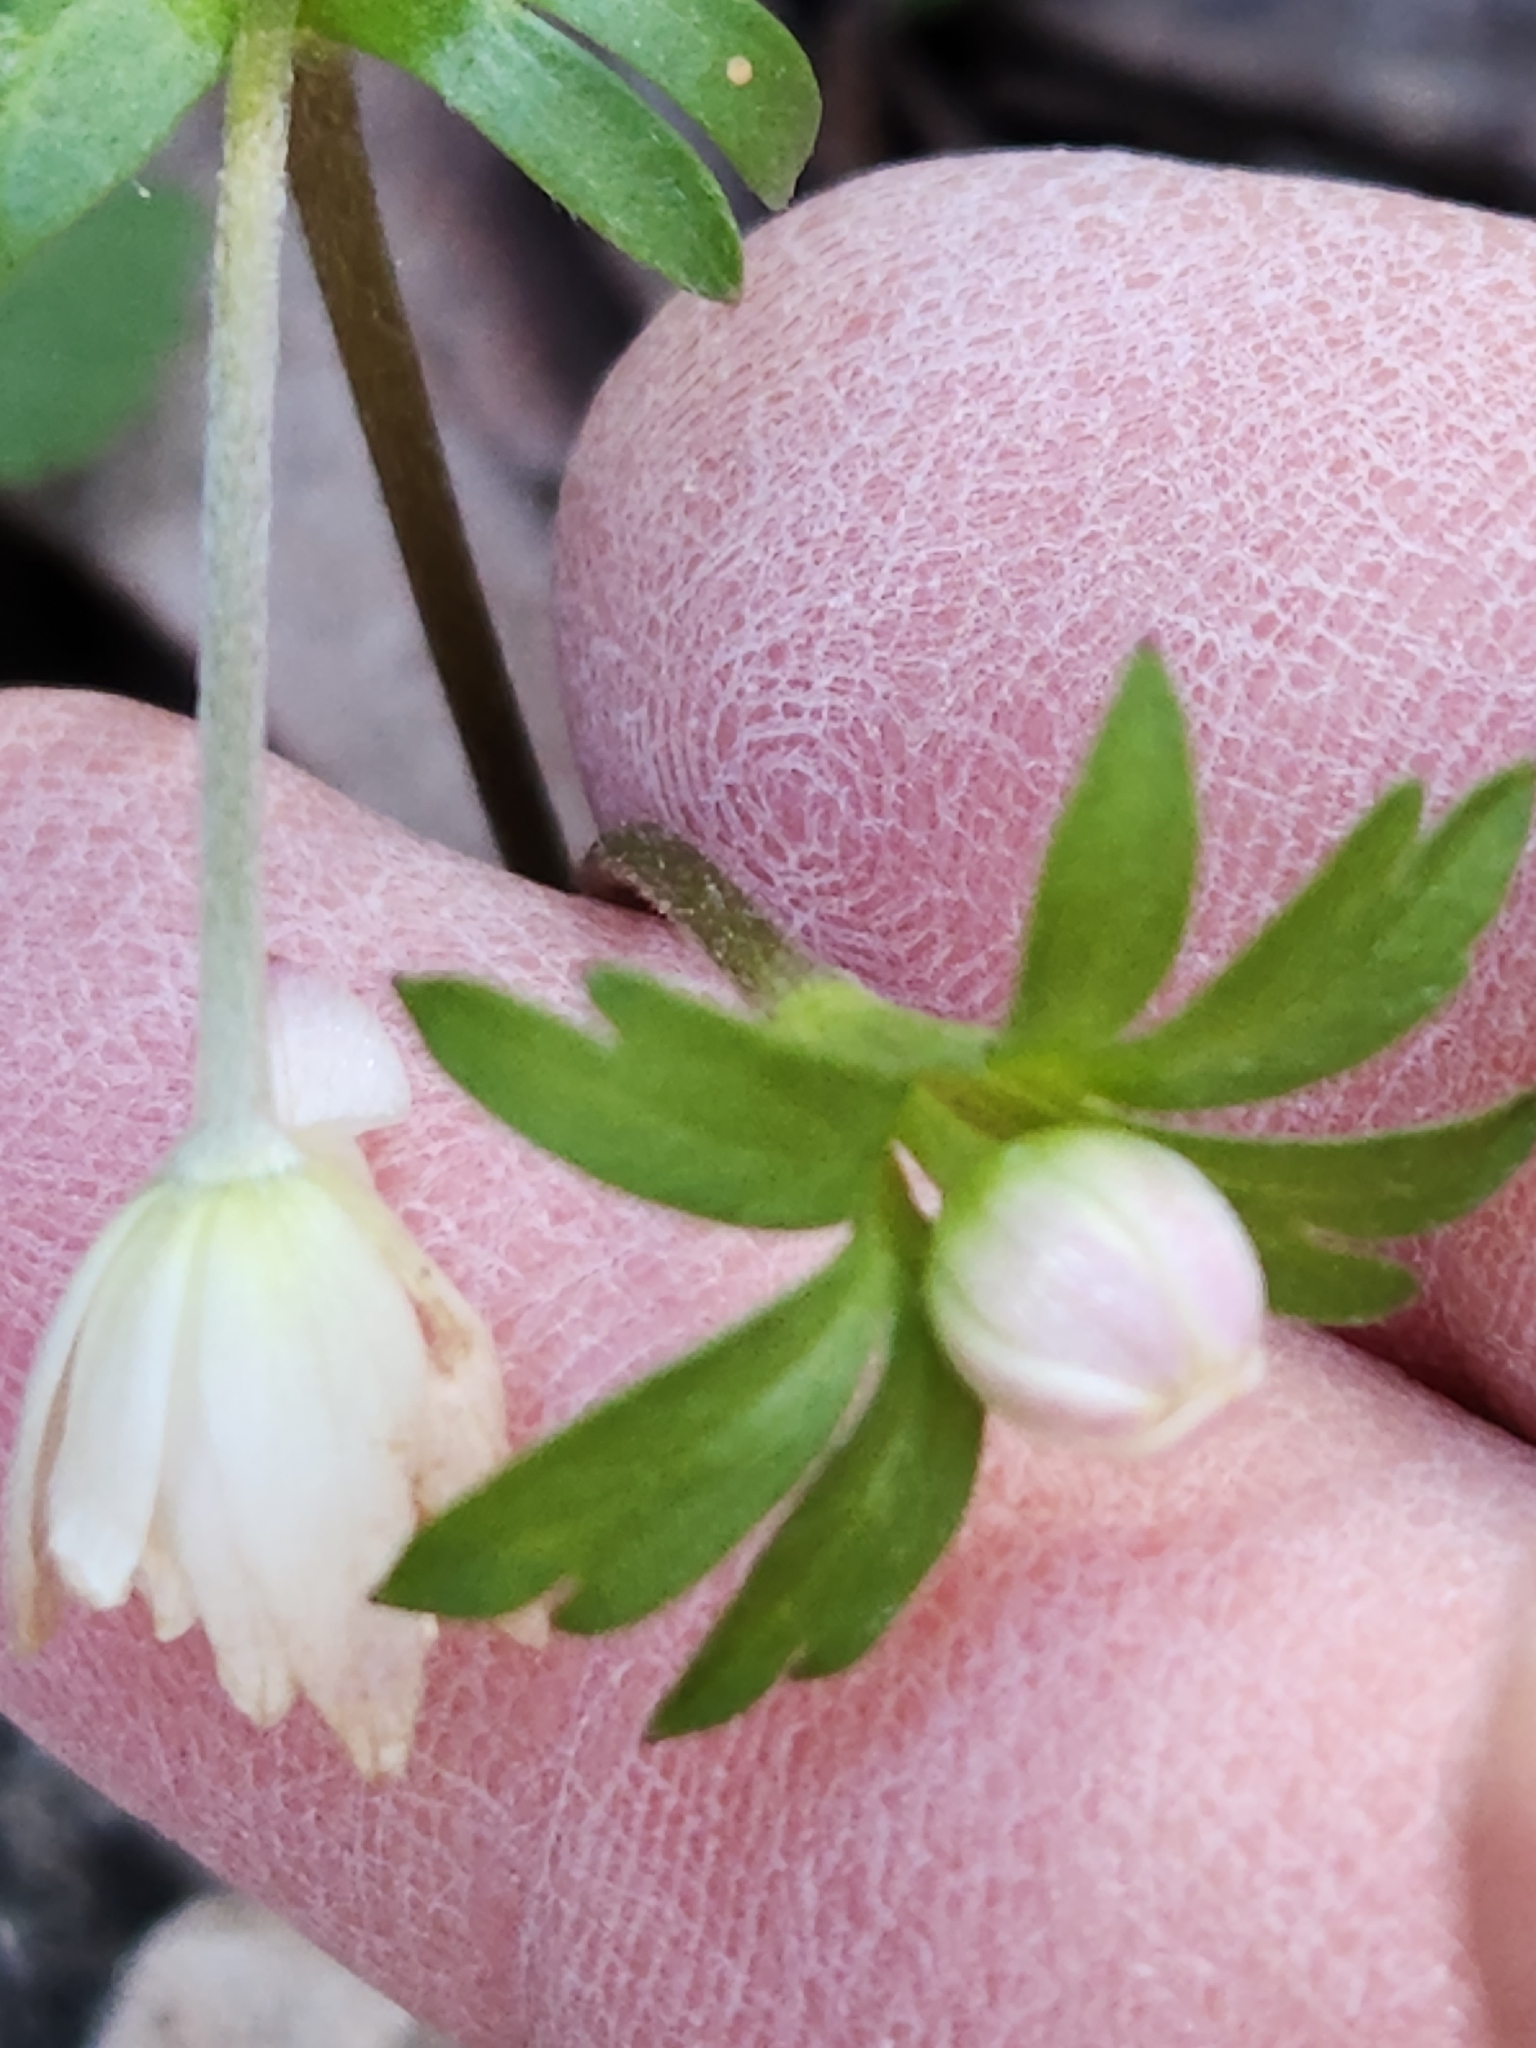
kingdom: Plantae
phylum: Tracheophyta
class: Magnoliopsida
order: Ranunculales
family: Ranunculaceae
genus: Anemone
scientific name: Anemone edwardsiana
